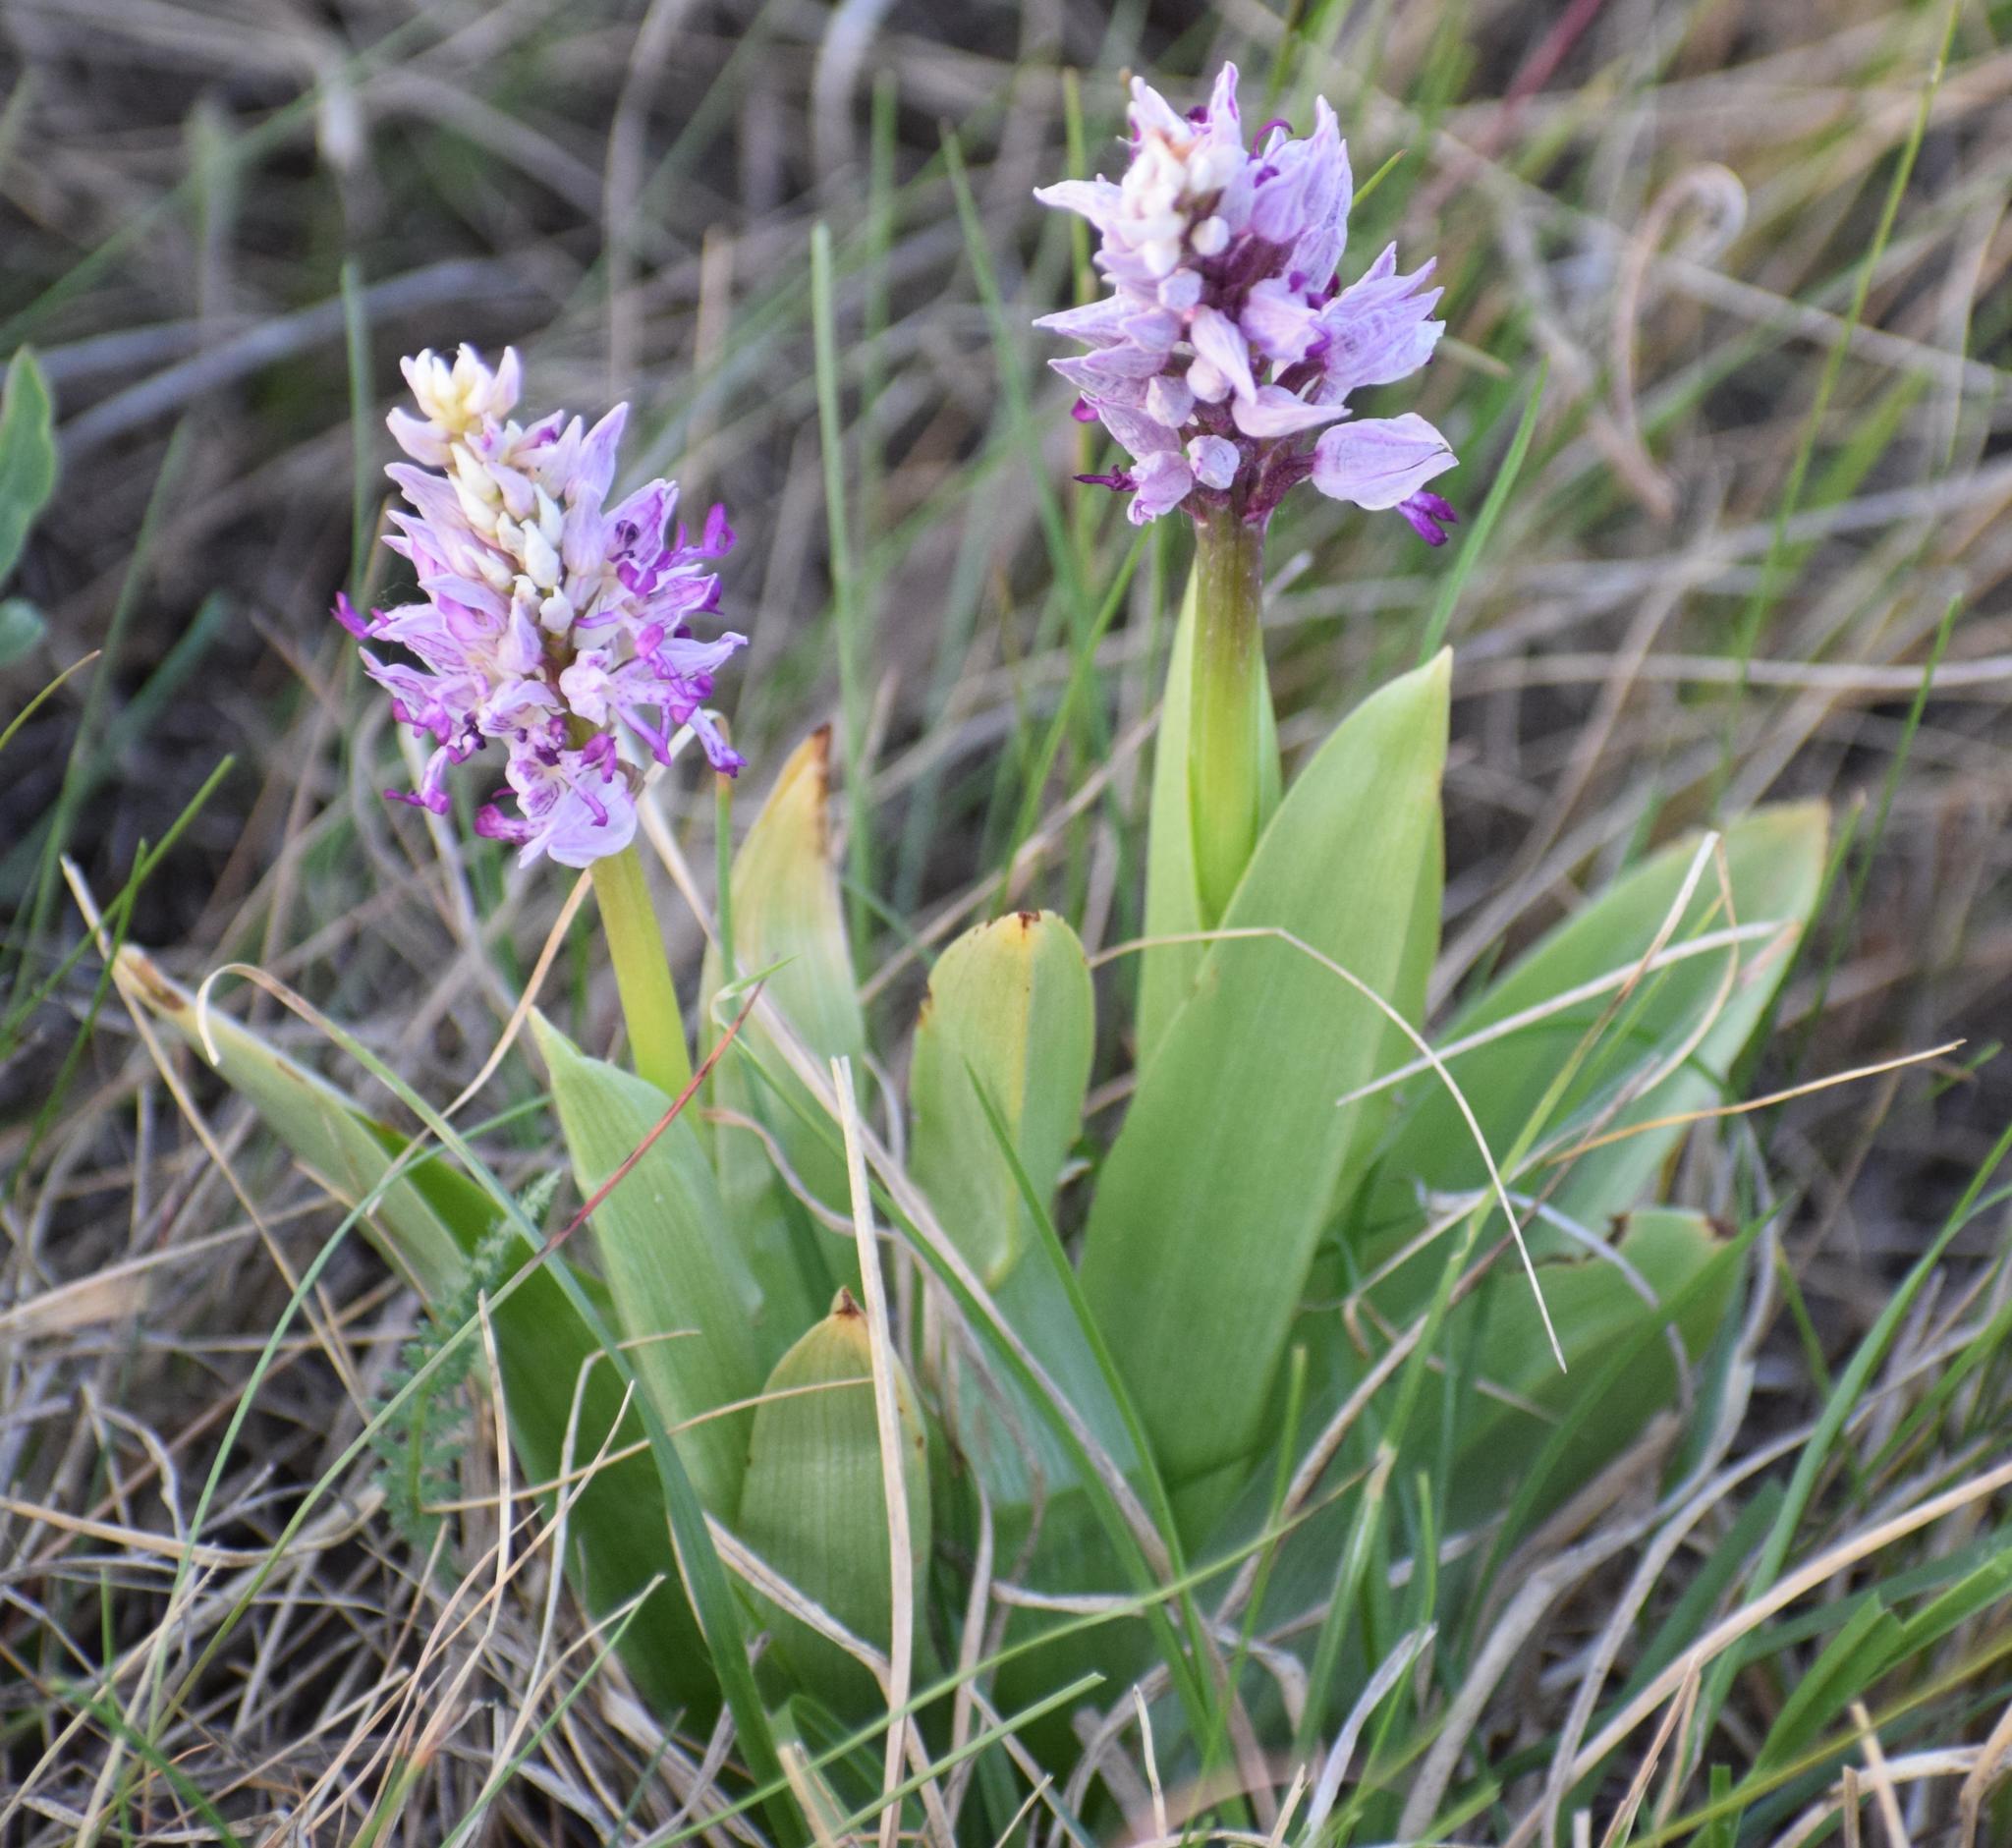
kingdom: Plantae
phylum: Tracheophyta
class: Liliopsida
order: Asparagales
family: Orchidaceae
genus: Orchis
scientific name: Orchis militaris
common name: Military orchid
